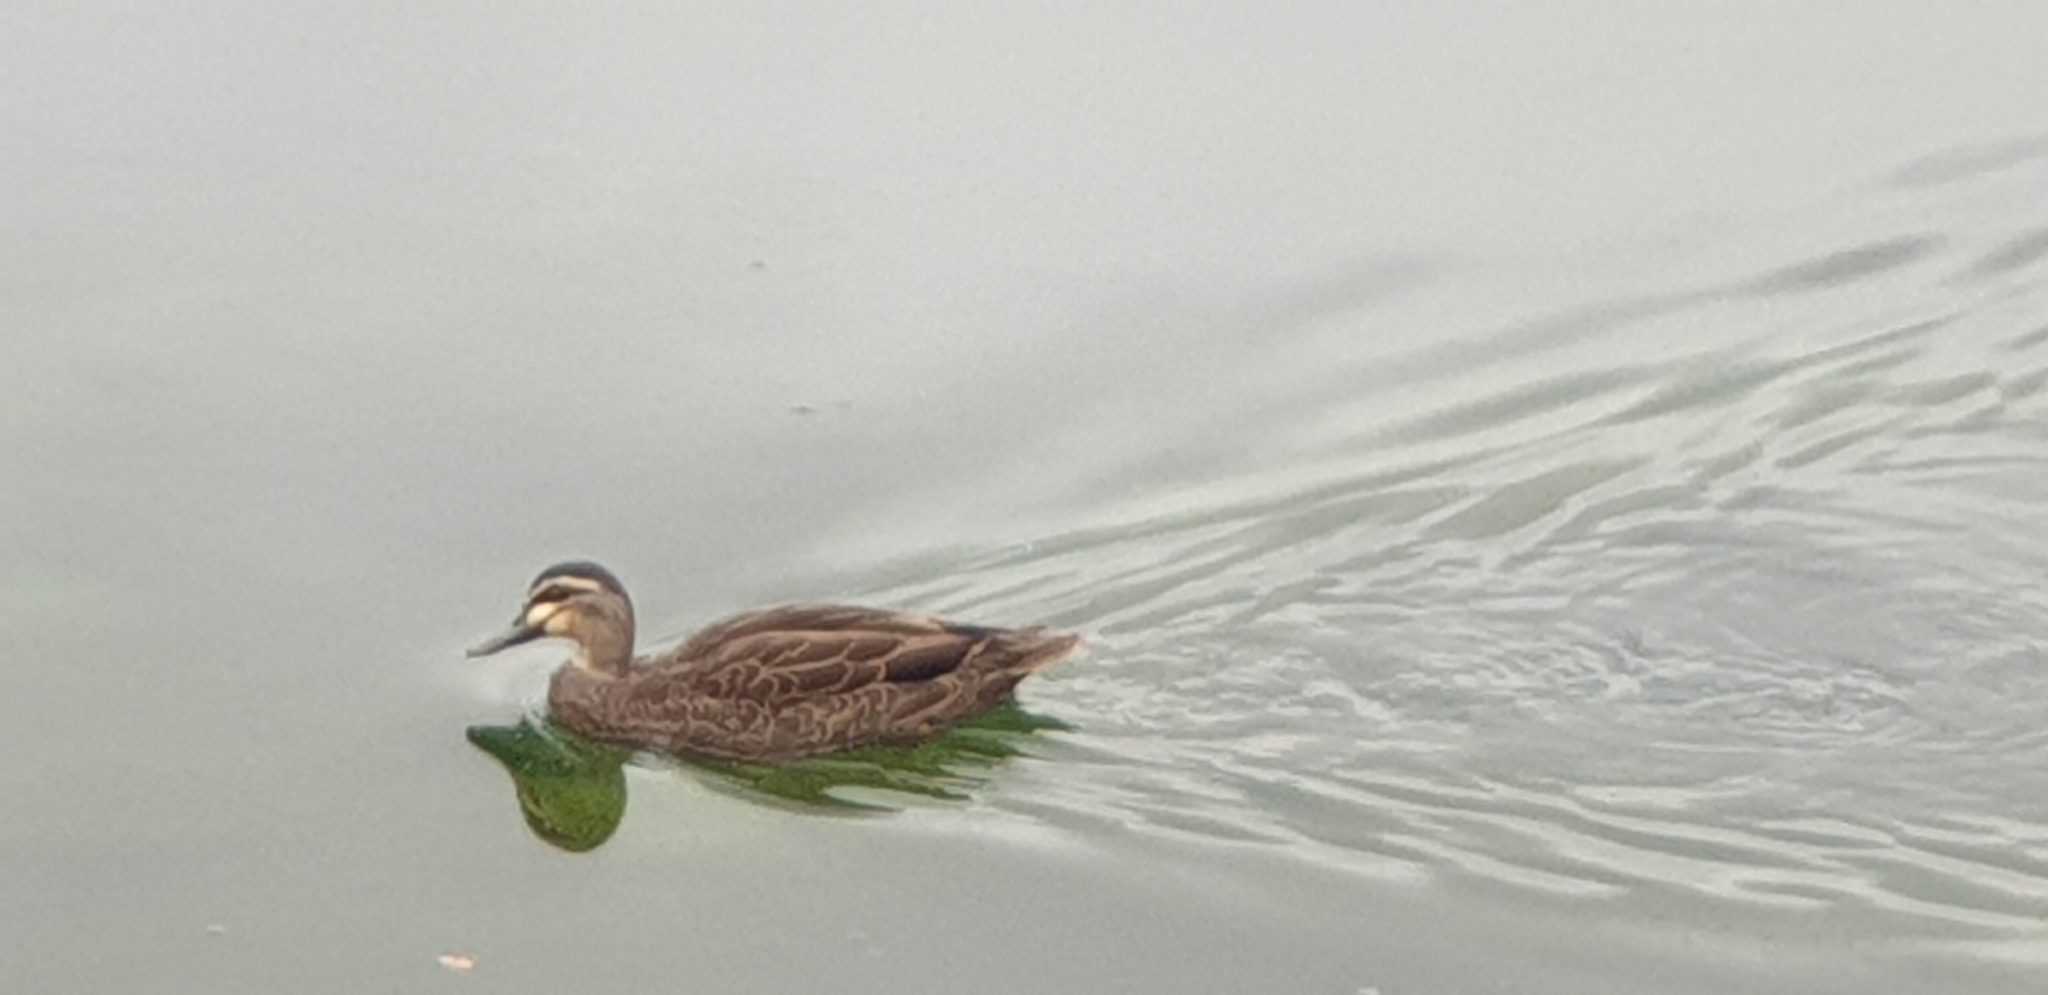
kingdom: Animalia
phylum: Chordata
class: Aves
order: Anseriformes
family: Anatidae
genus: Anas
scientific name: Anas superciliosa
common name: Pacific black duck
